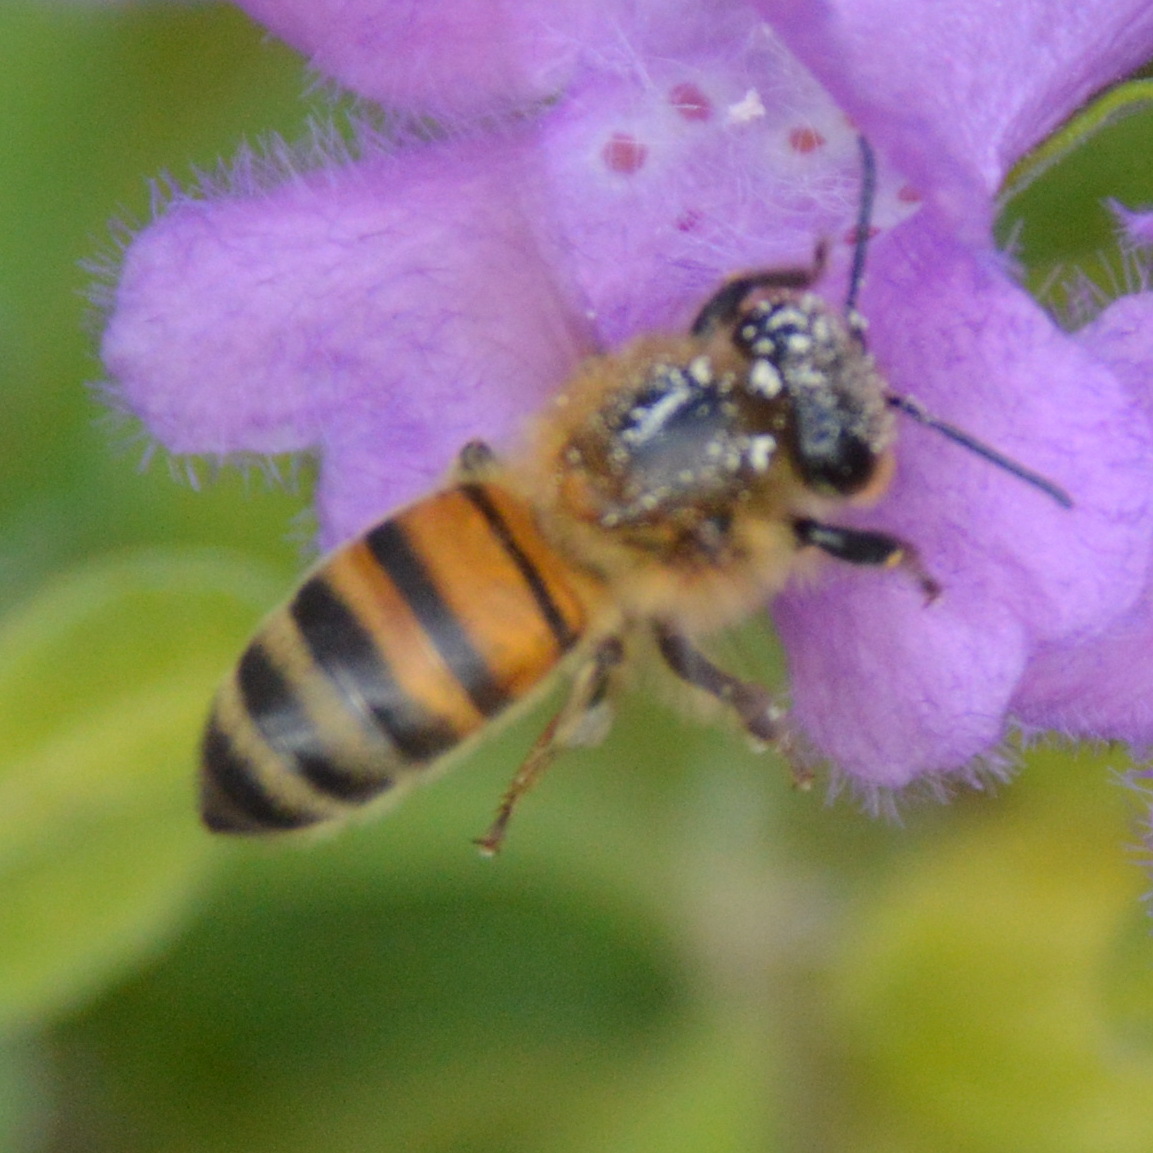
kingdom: Animalia
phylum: Arthropoda
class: Insecta
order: Hymenoptera
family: Apidae
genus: Apis
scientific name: Apis mellifera
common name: Honey bee
